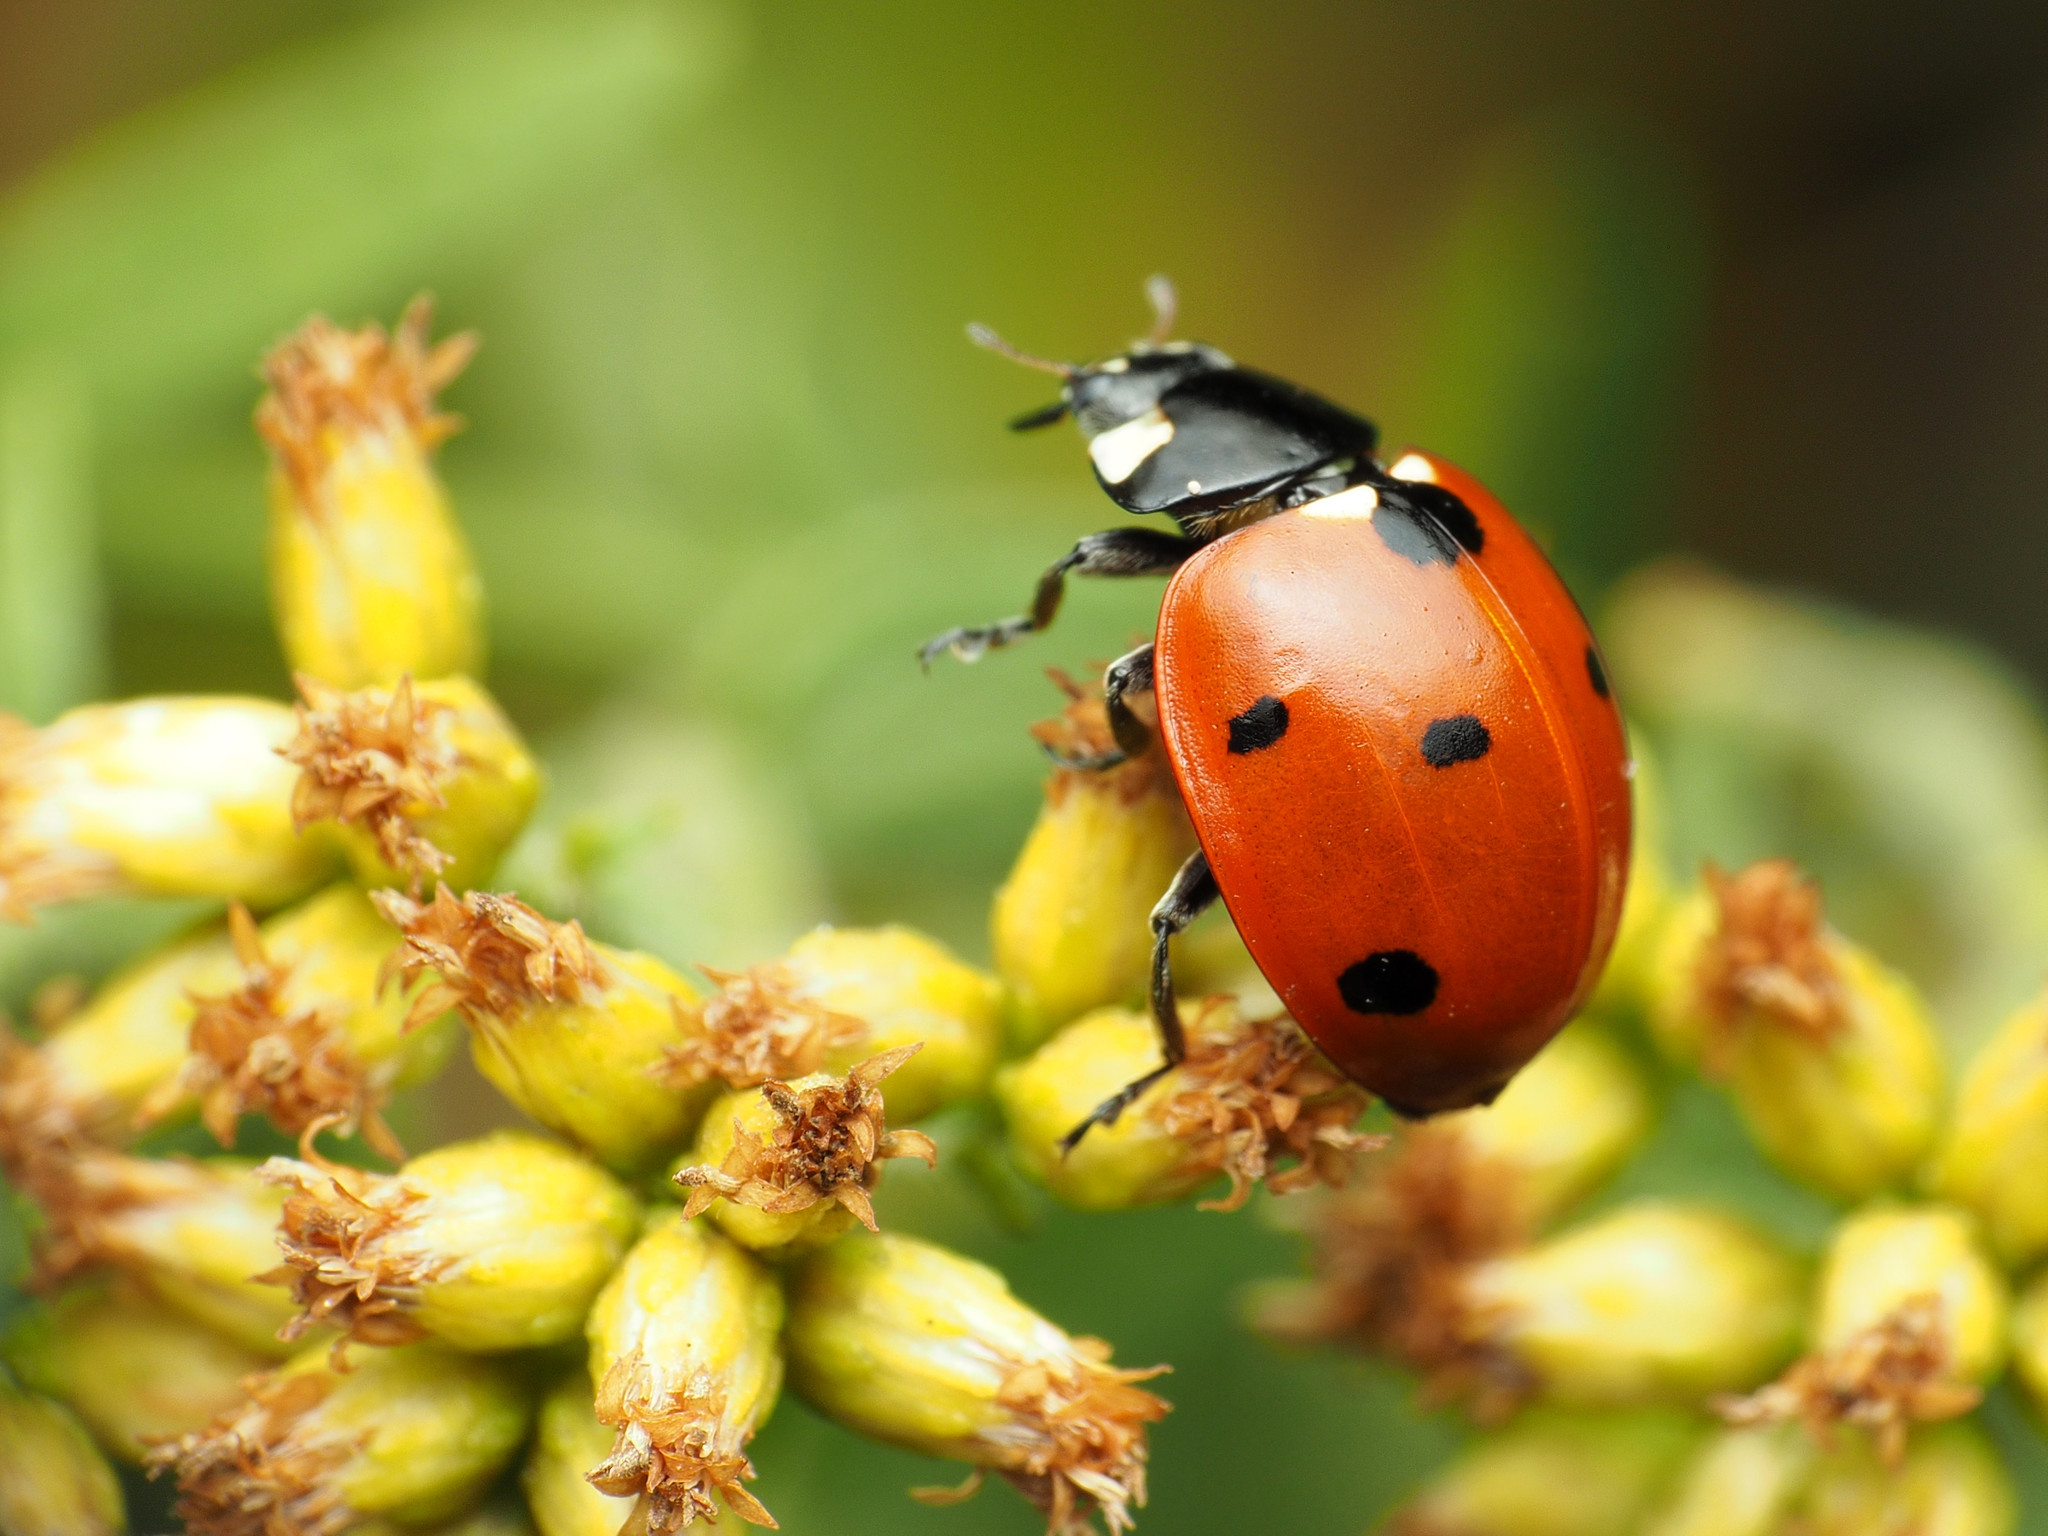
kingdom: Animalia
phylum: Arthropoda
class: Insecta
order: Coleoptera
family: Coccinellidae
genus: Coccinella
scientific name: Coccinella septempunctata
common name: Sevenspotted lady beetle
